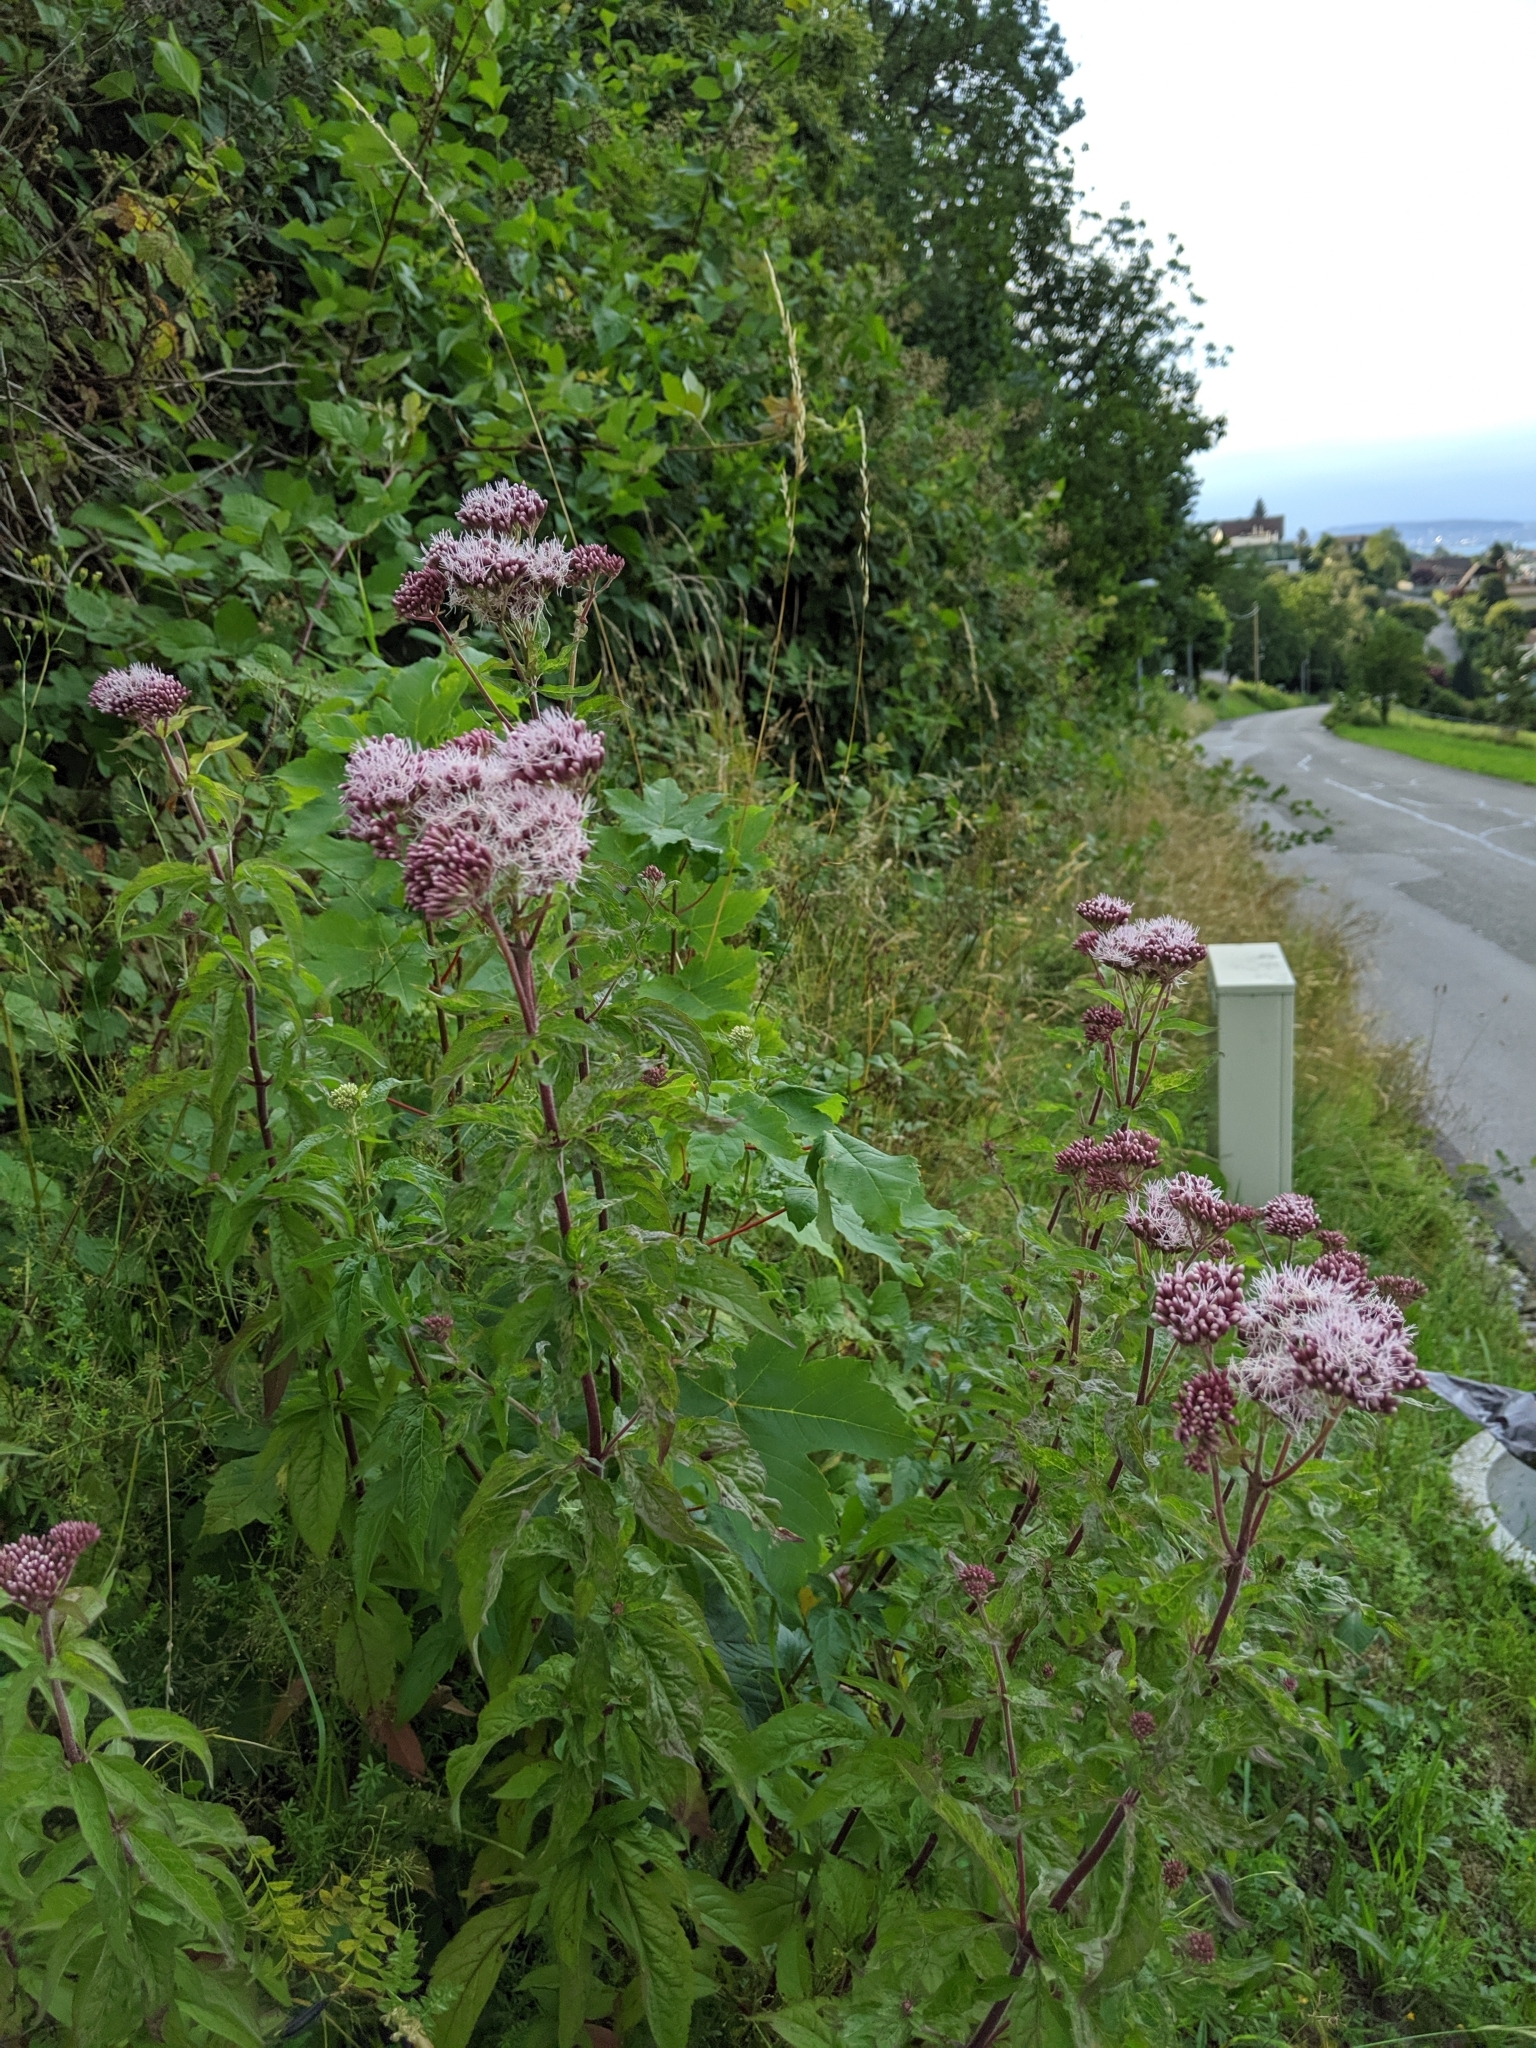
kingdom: Plantae
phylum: Tracheophyta
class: Magnoliopsida
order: Asterales
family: Asteraceae
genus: Eupatorium
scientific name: Eupatorium cannabinum
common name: Hemp-agrimony
